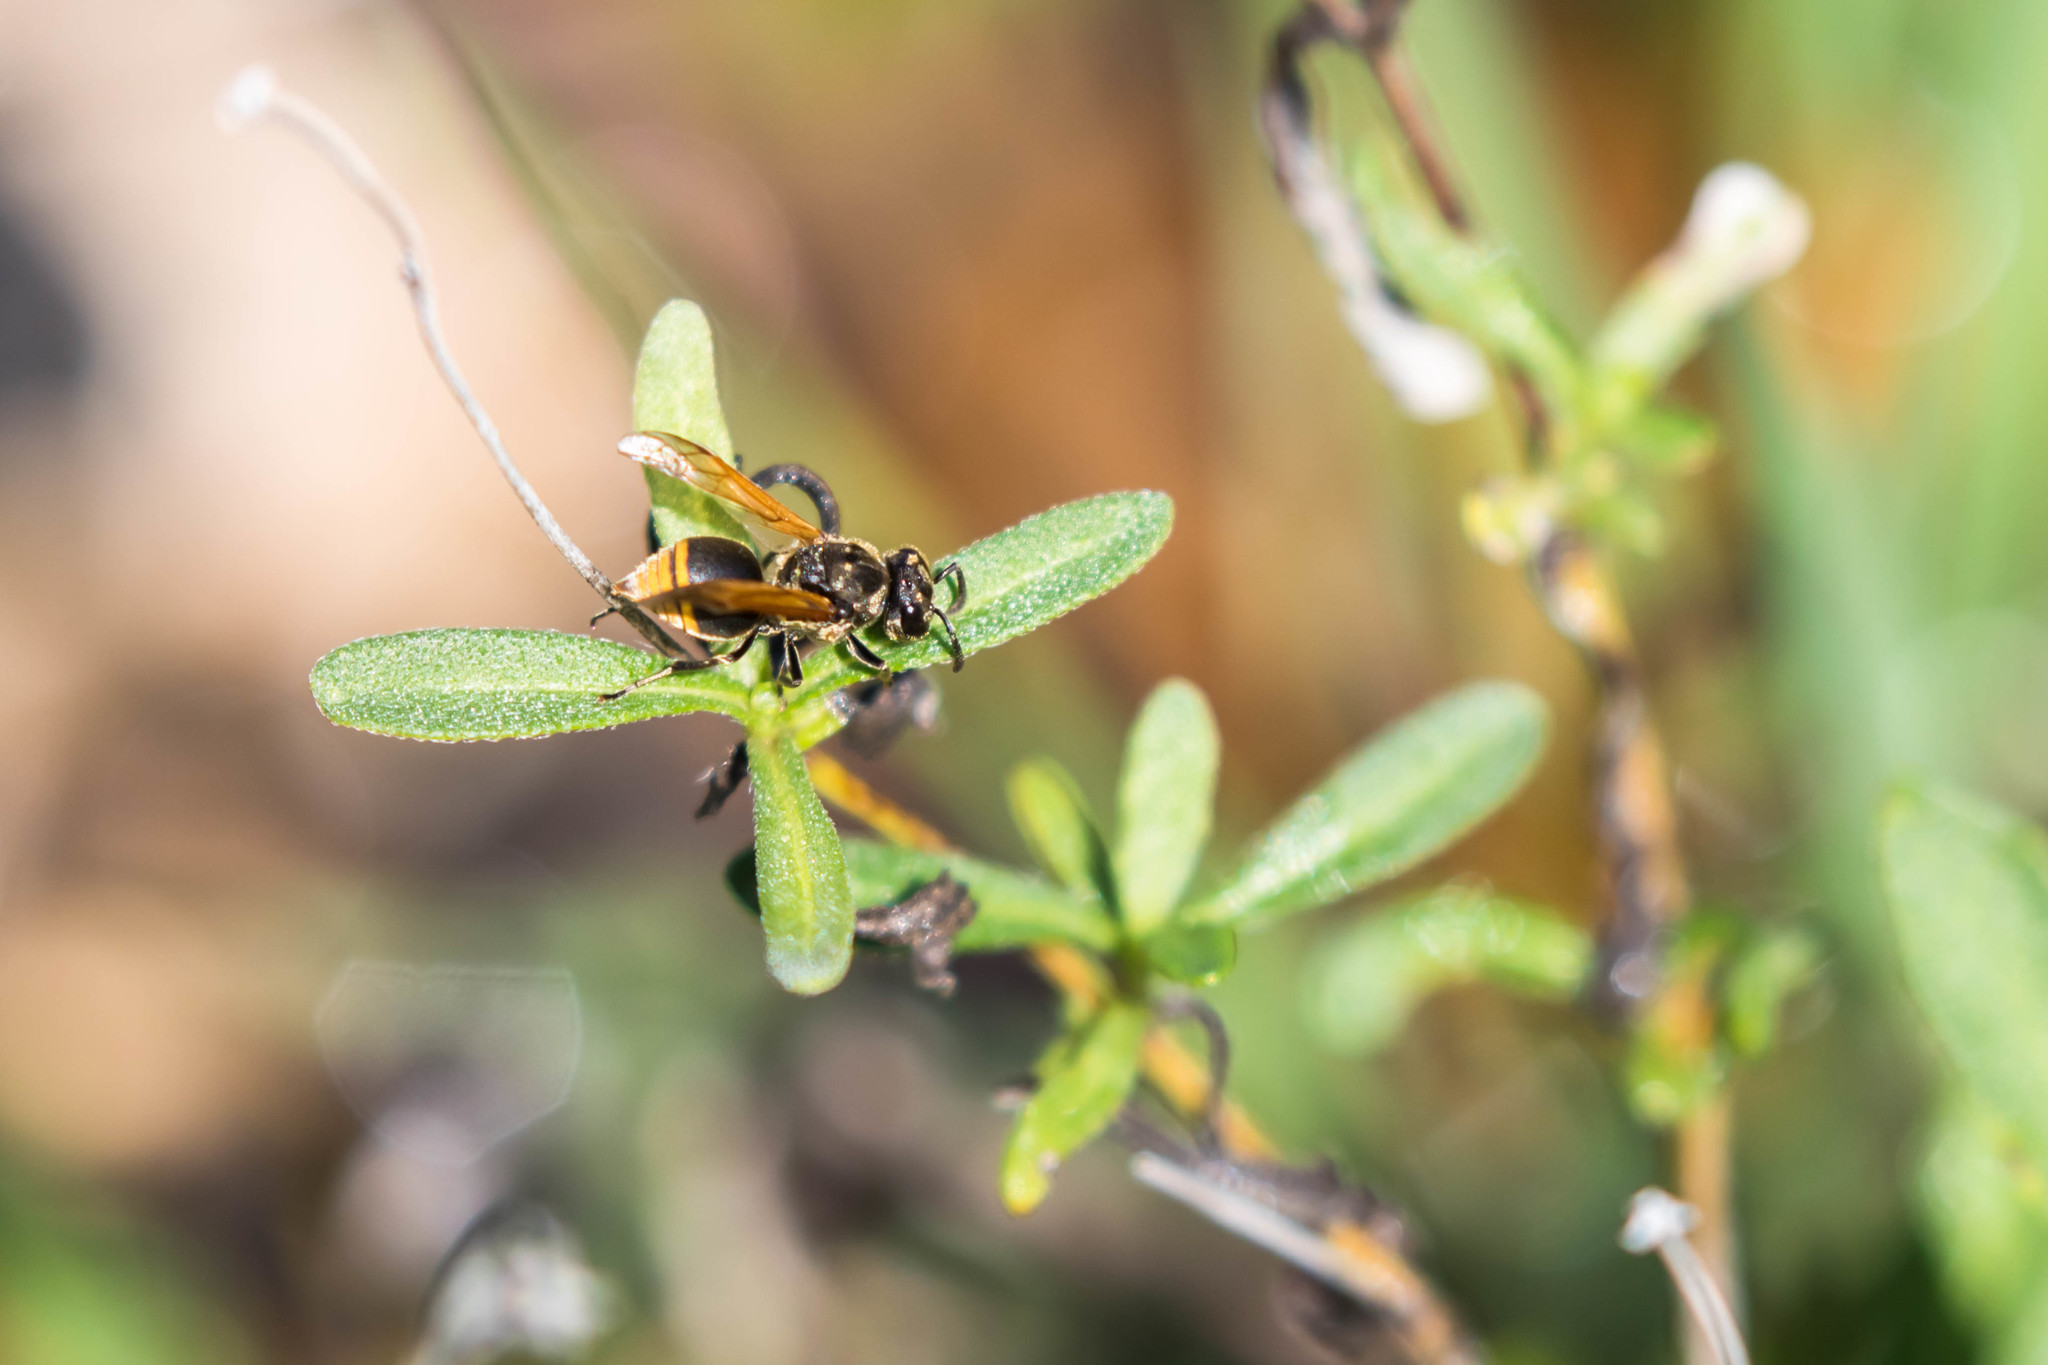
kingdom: Animalia
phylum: Arthropoda
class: Insecta
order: Hymenoptera
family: Vespidae
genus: Brachygastra
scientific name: Brachygastra mellifica
